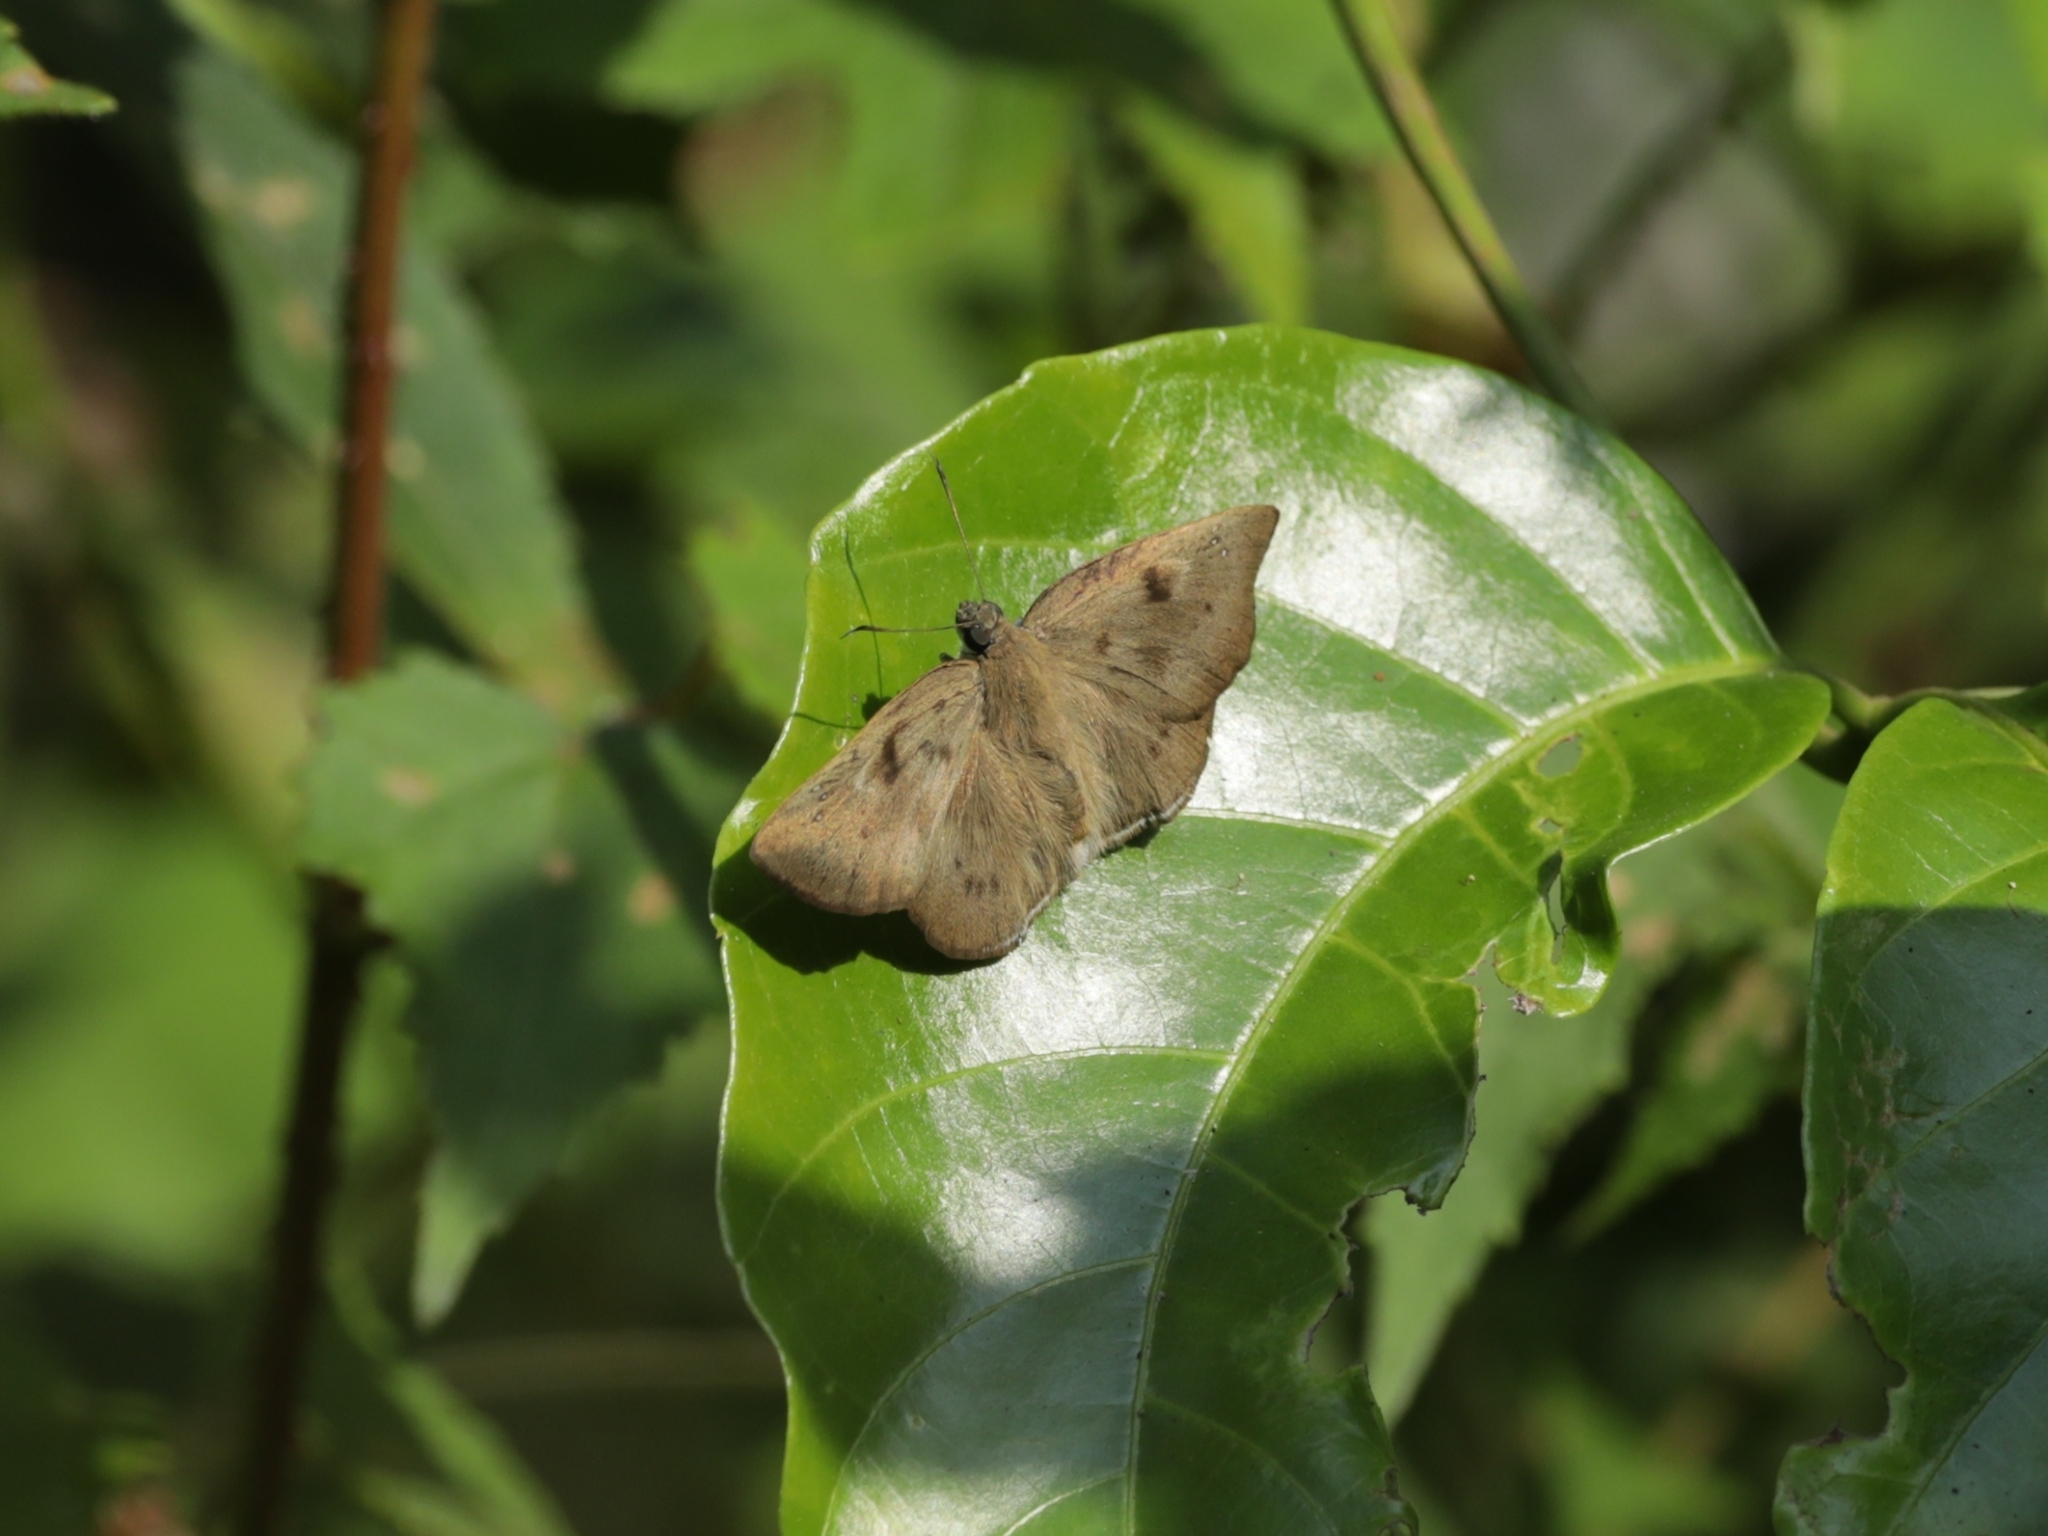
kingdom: Animalia
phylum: Arthropoda
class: Insecta
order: Lepidoptera
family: Hesperiidae
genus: Tagiades
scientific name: Tagiades gana
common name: Suffused snow flat
